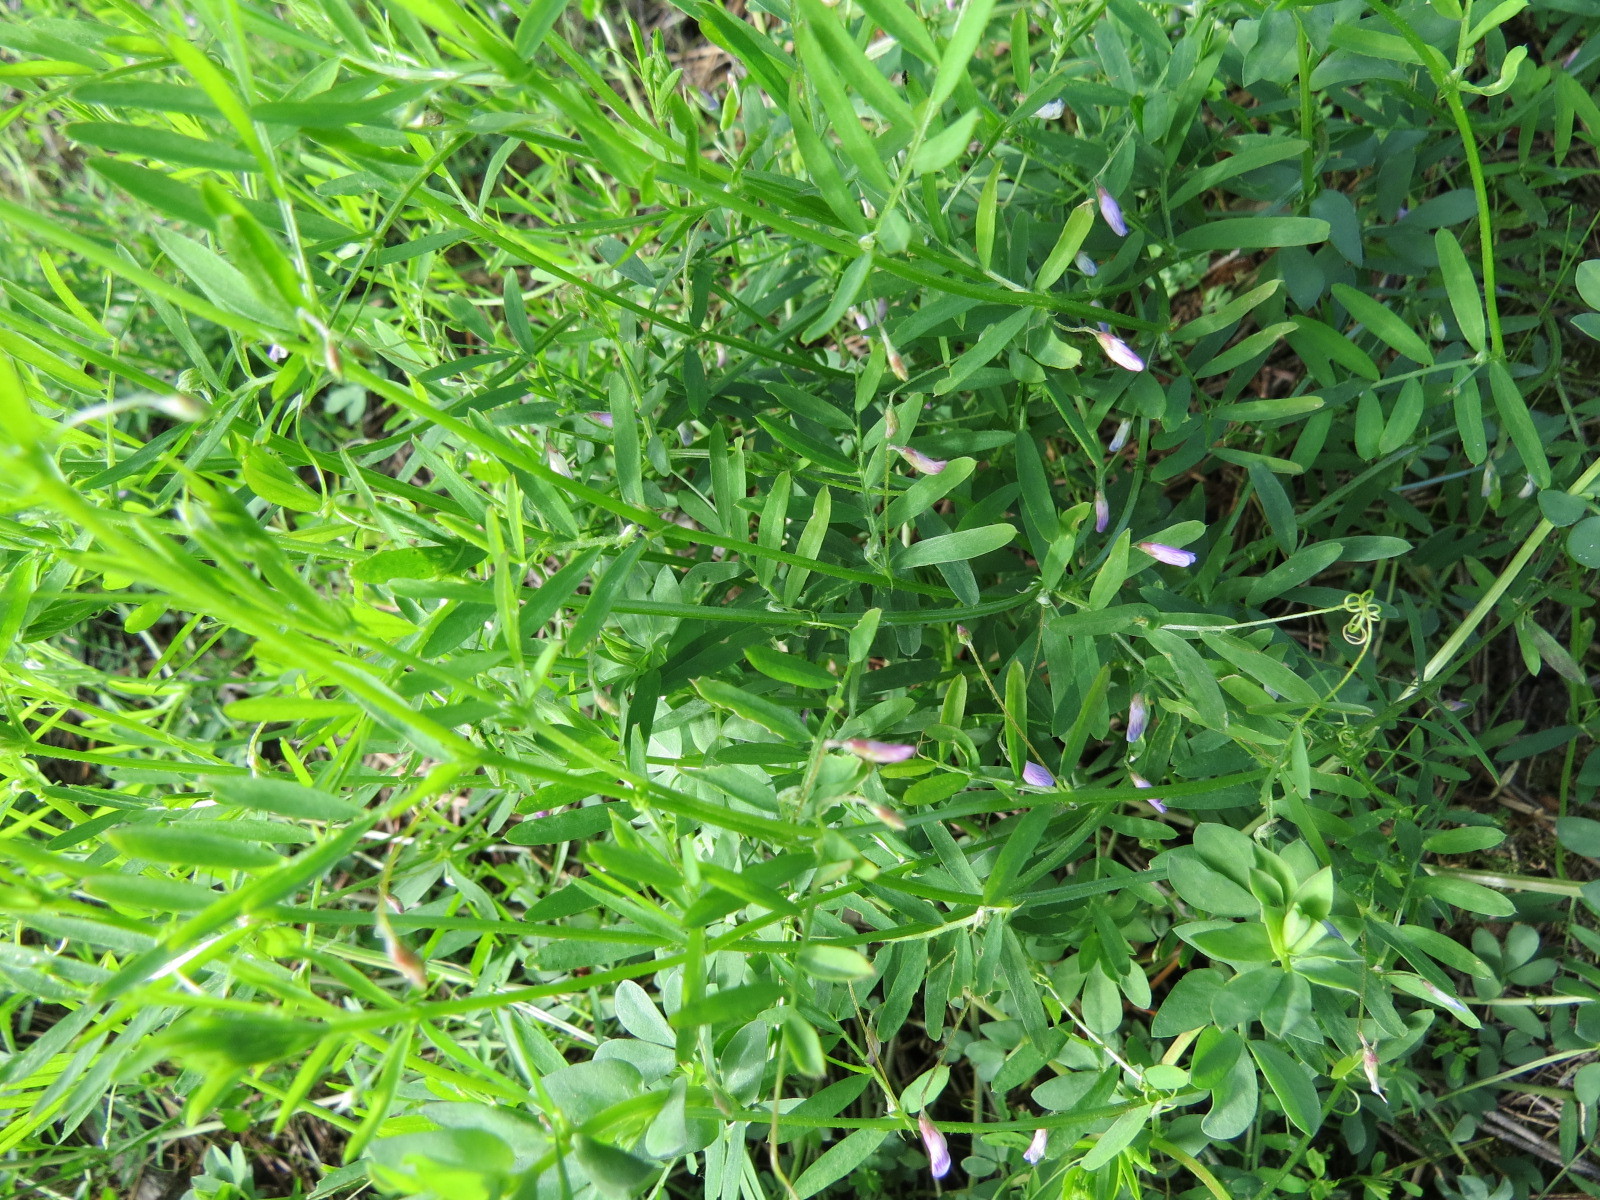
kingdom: Plantae
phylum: Tracheophyta
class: Magnoliopsida
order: Fabales
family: Fabaceae
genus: Vicia
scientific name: Vicia tetrasperma
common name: Smooth tare
